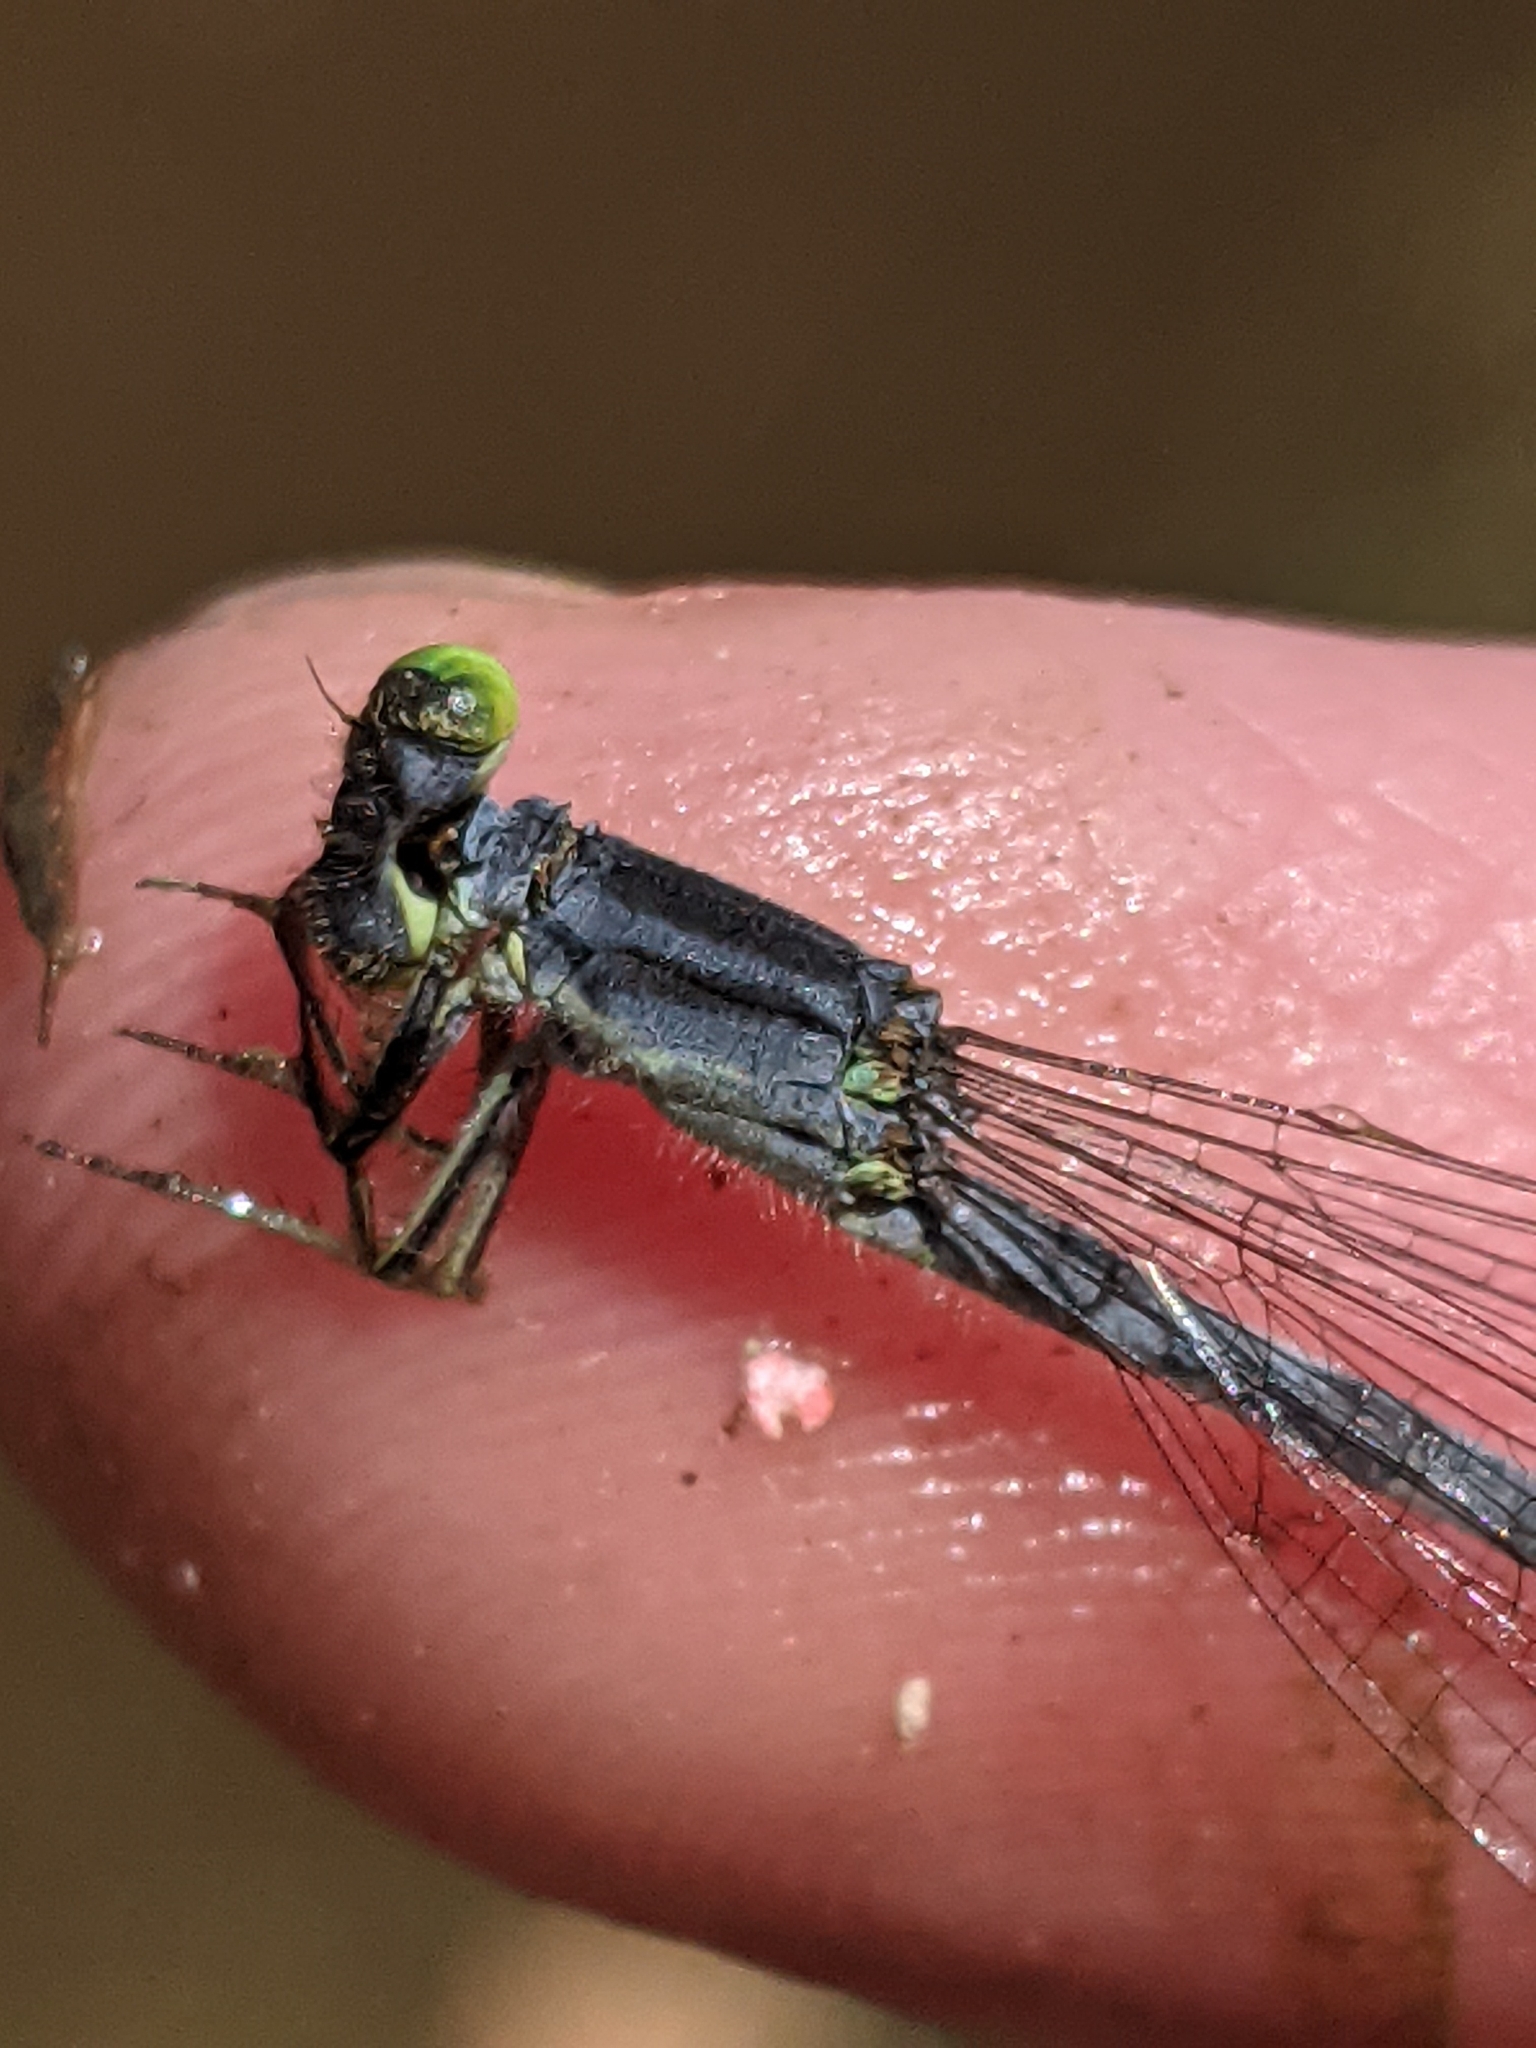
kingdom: Animalia
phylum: Arthropoda
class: Insecta
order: Odonata
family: Coenagrionidae
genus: Ischnura
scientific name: Ischnura verticalis
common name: Eastern forktail
